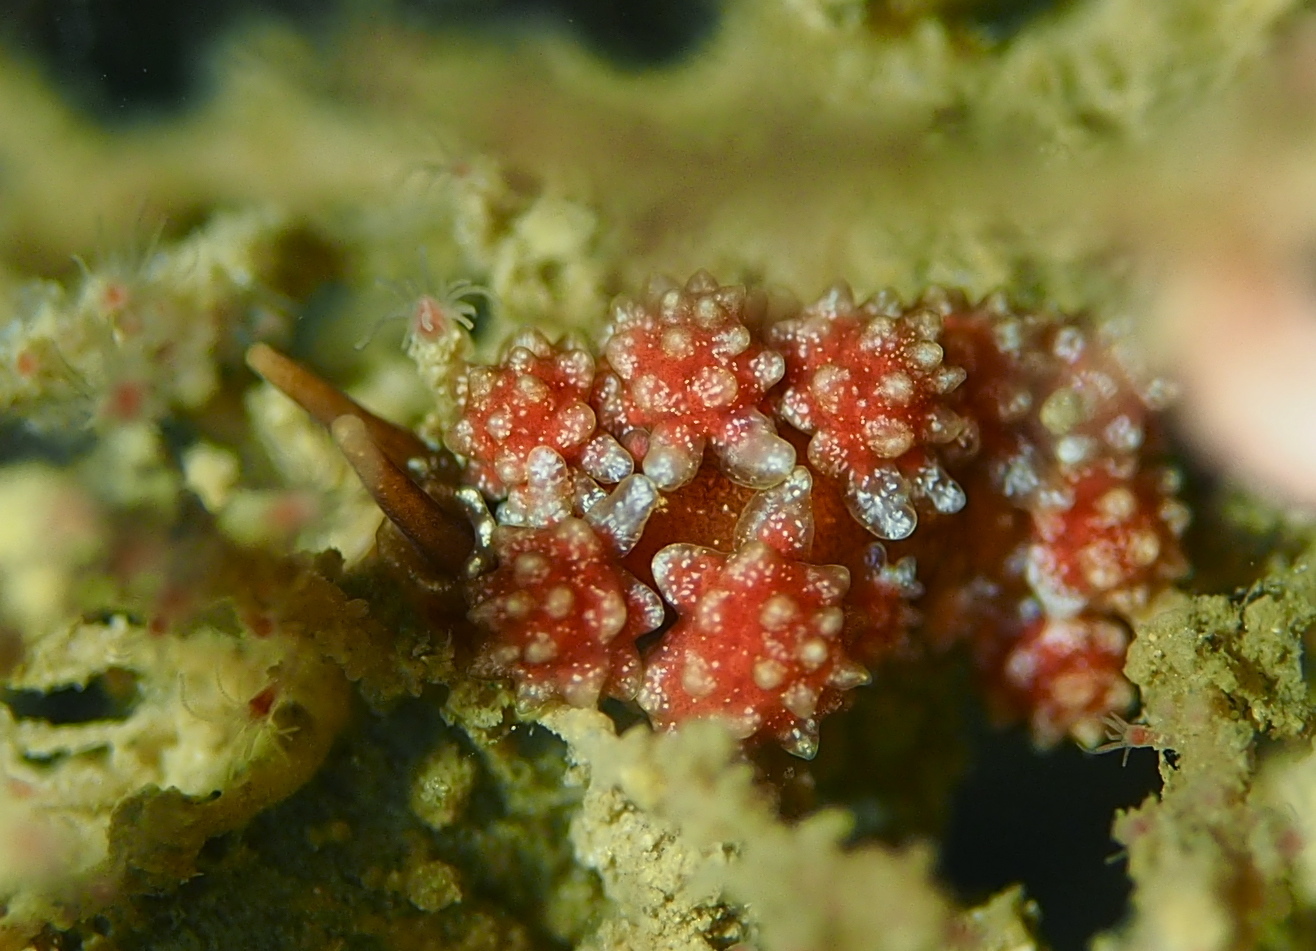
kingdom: Animalia
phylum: Mollusca
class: Gastropoda
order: Nudibranchia
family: Dotidae
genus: Doto
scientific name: Doto fragilis
